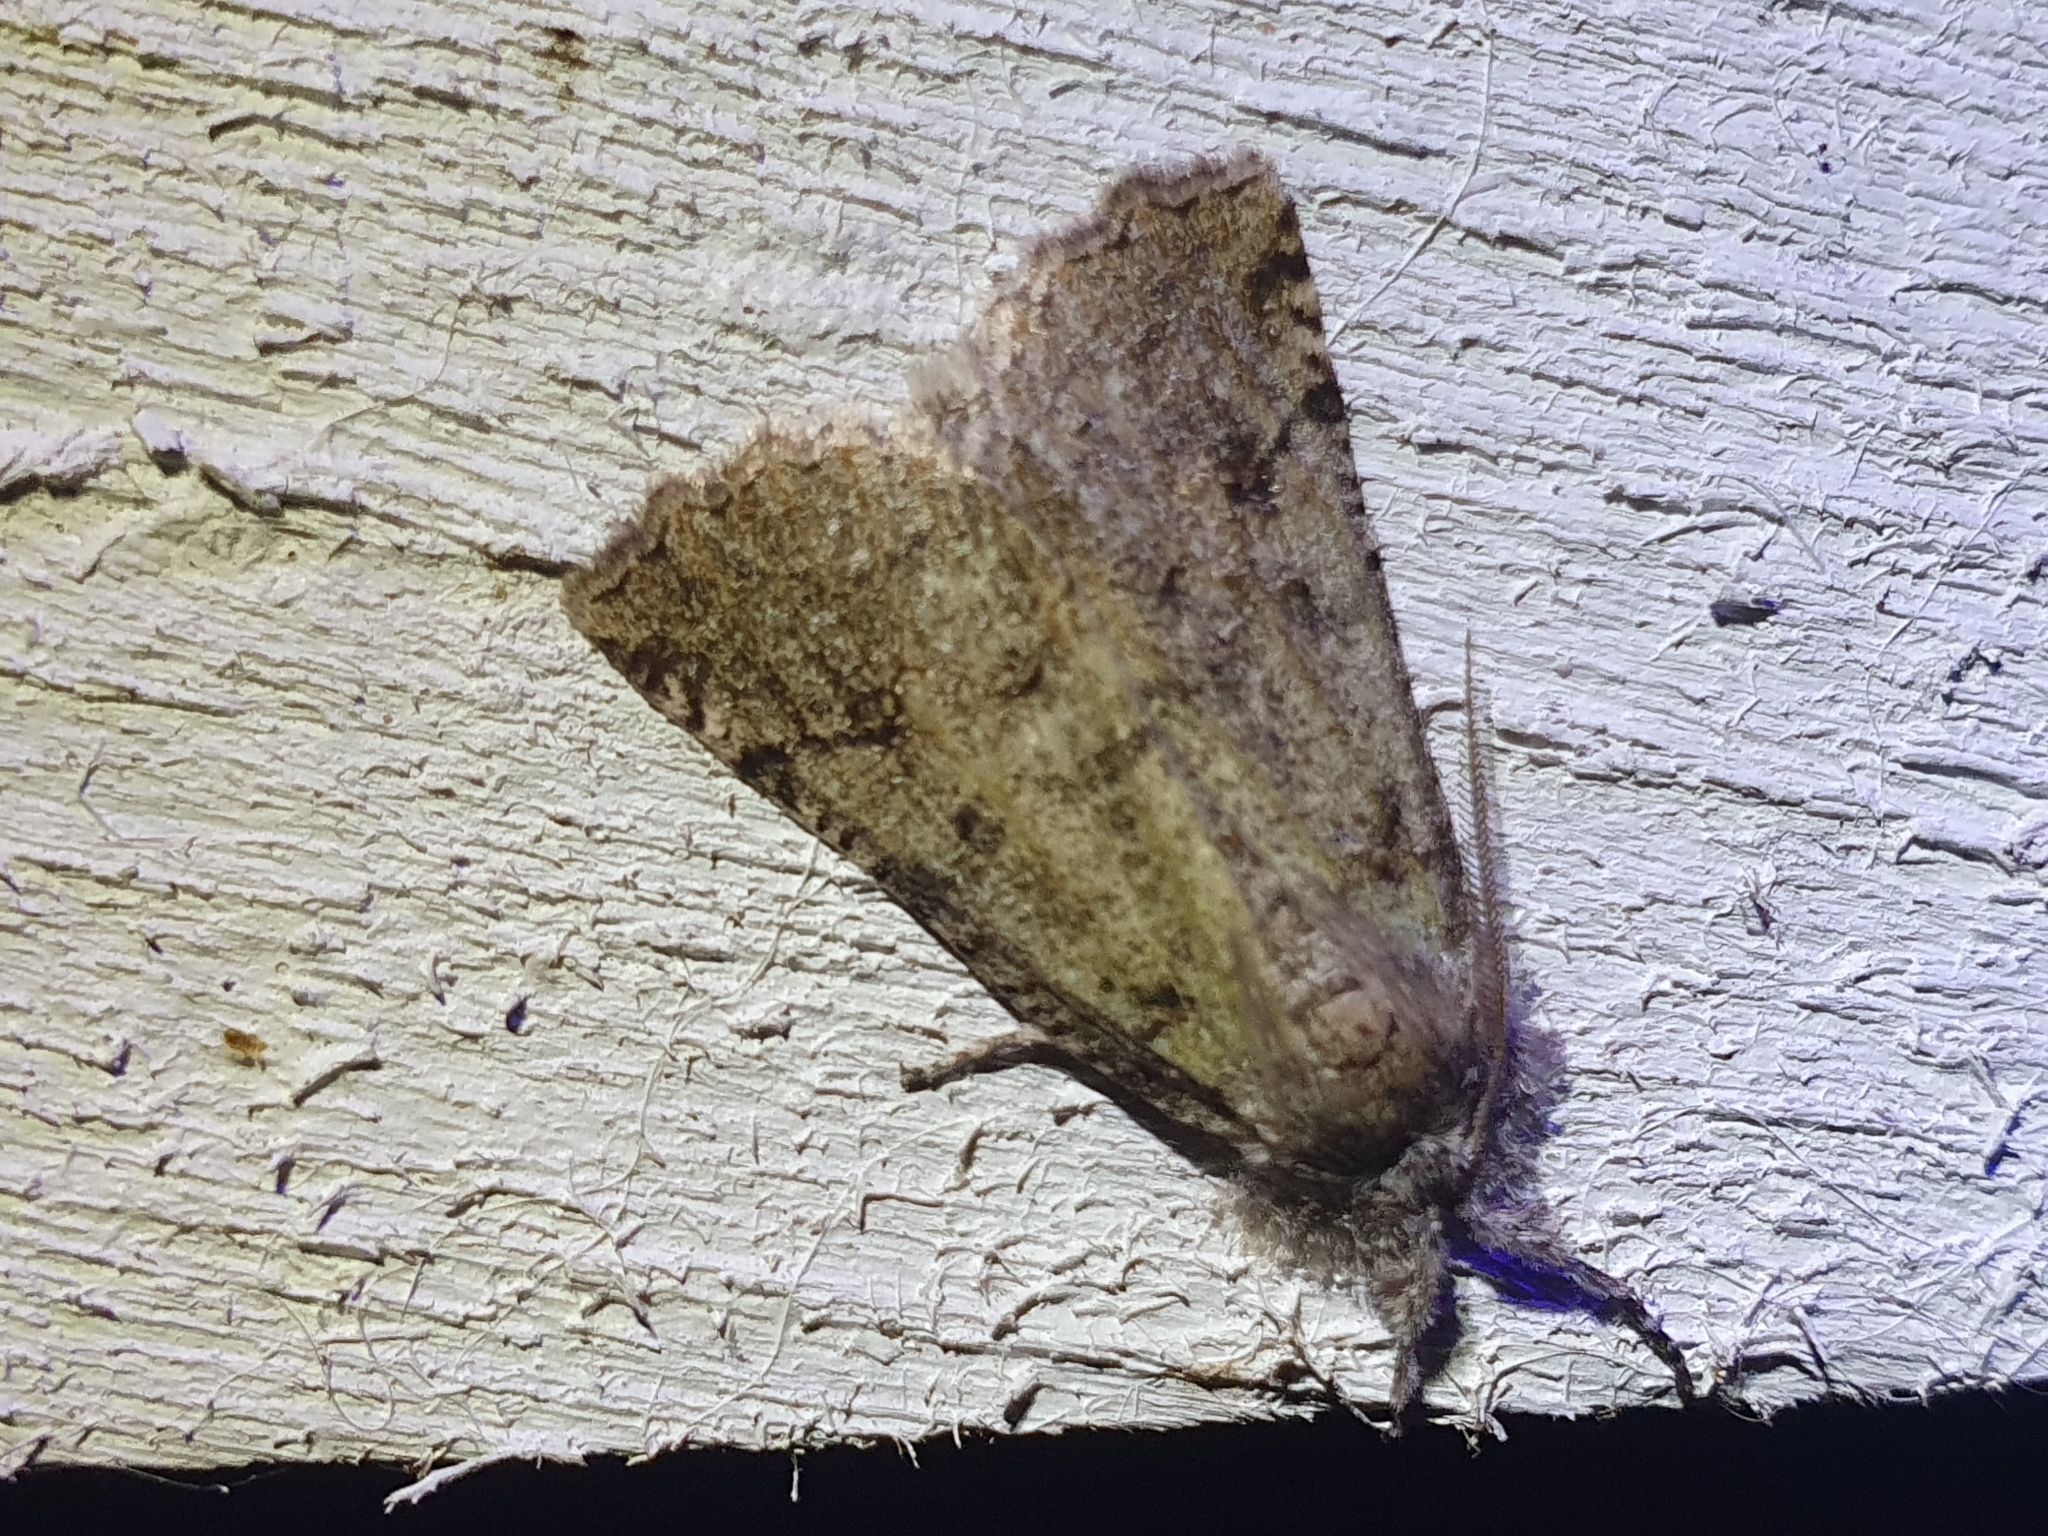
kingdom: Animalia
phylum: Arthropoda
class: Insecta
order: Lepidoptera
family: Geometridae
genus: Declana
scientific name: Declana floccosa
